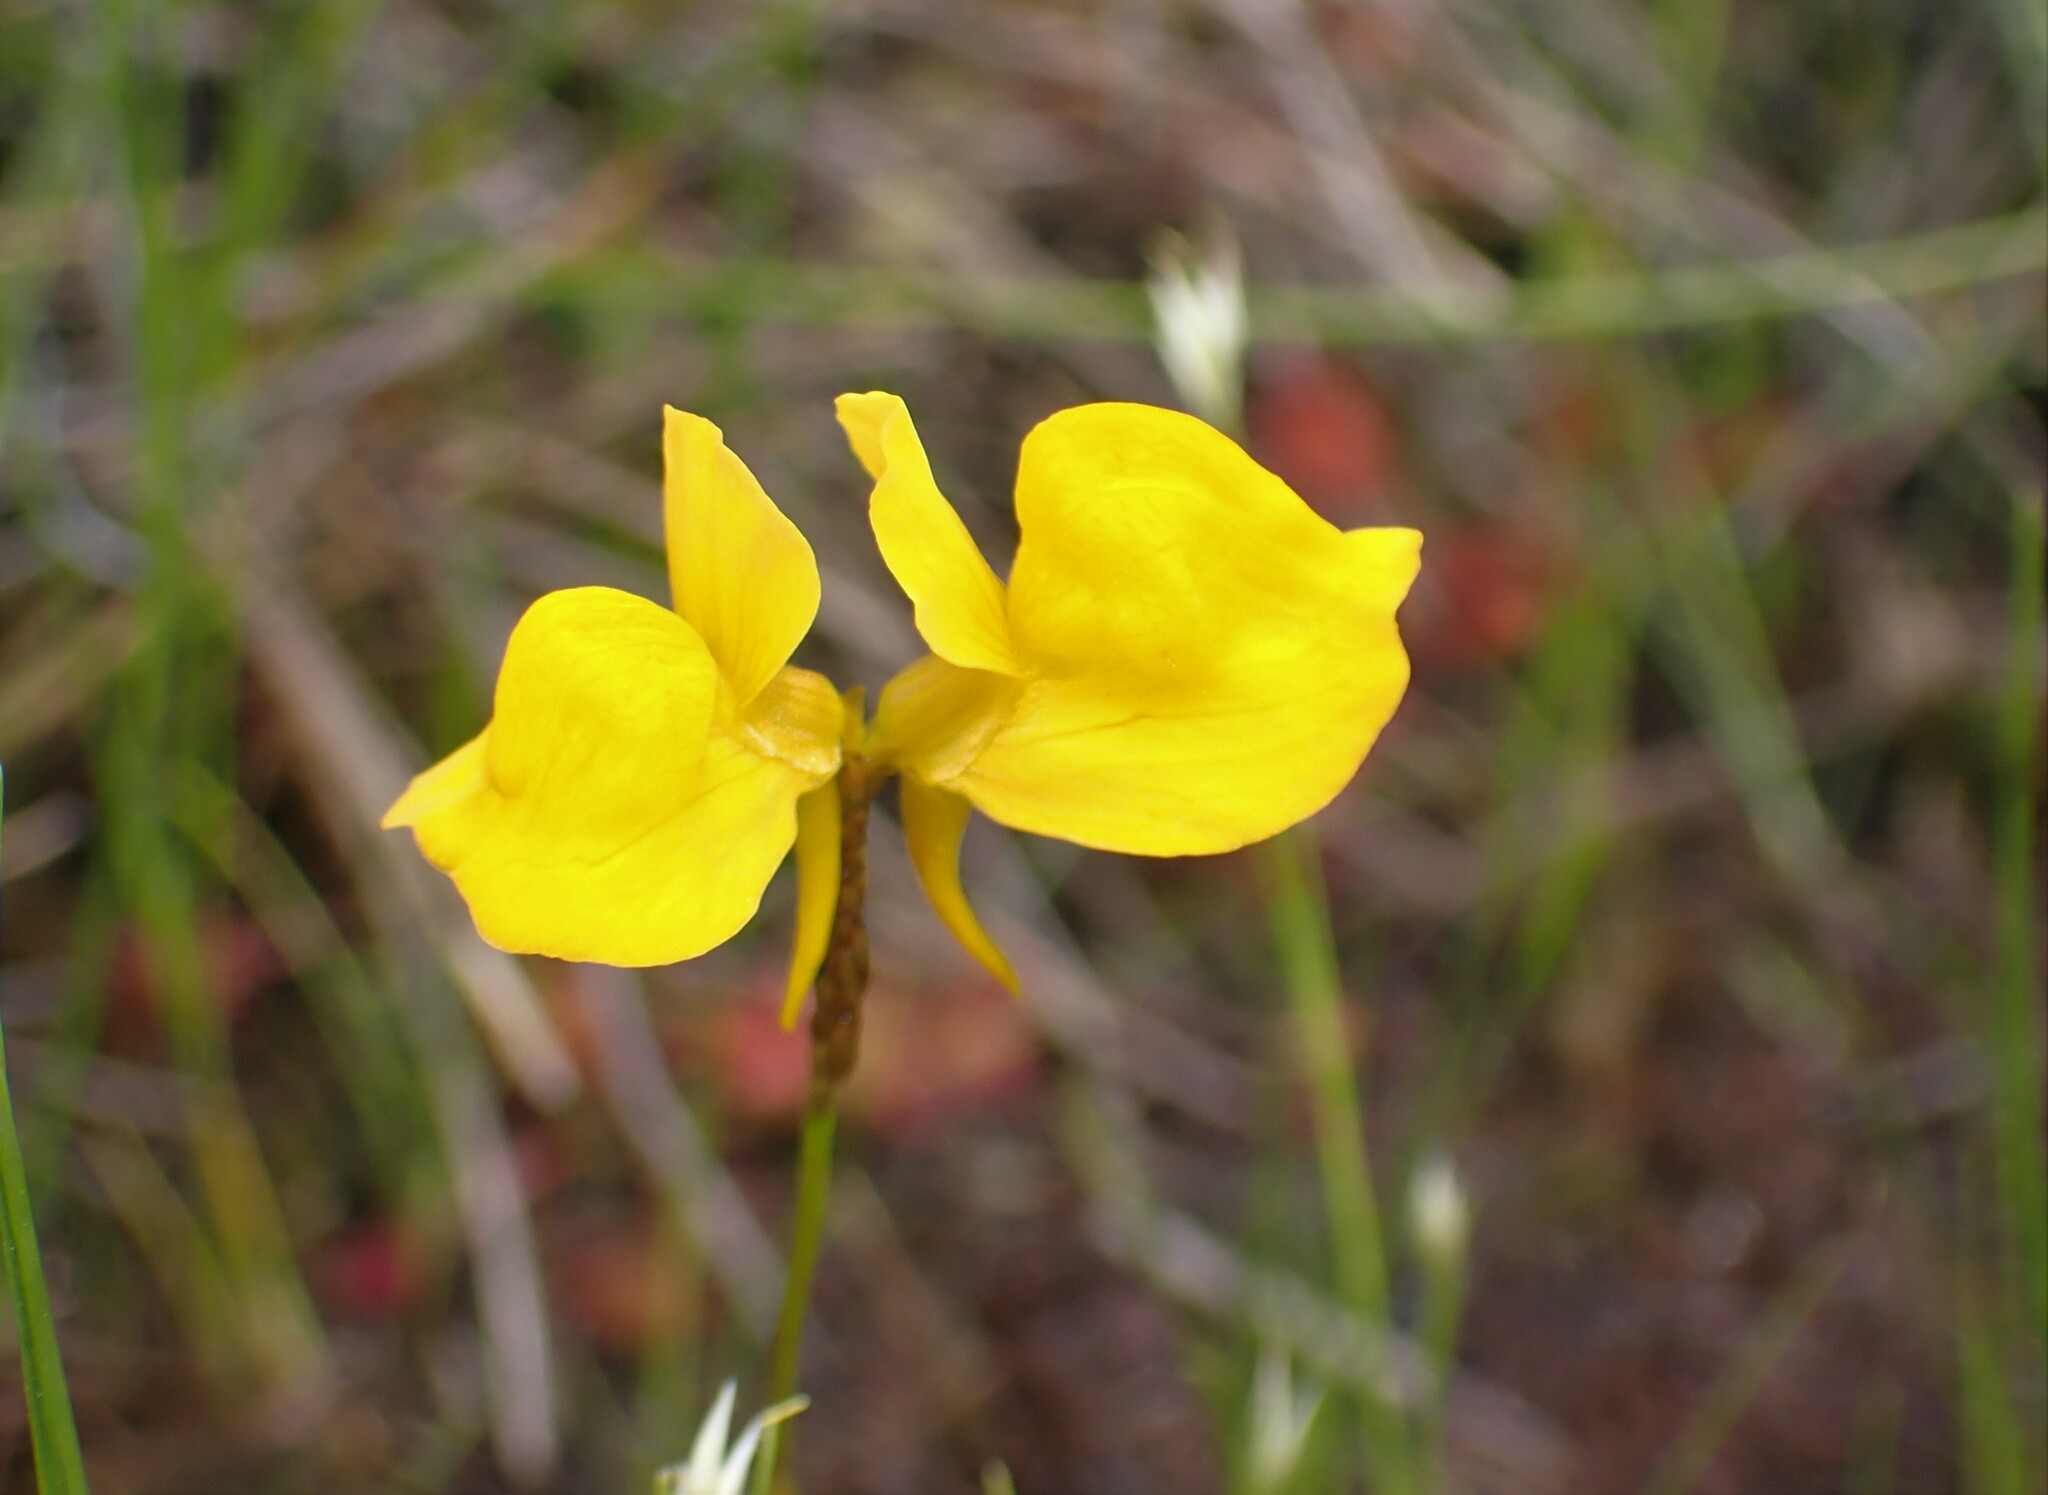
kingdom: Plantae
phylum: Tracheophyta
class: Magnoliopsida
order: Lamiales
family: Lentibulariaceae
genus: Utricularia
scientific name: Utricularia cornuta
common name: Horned bladderwort
